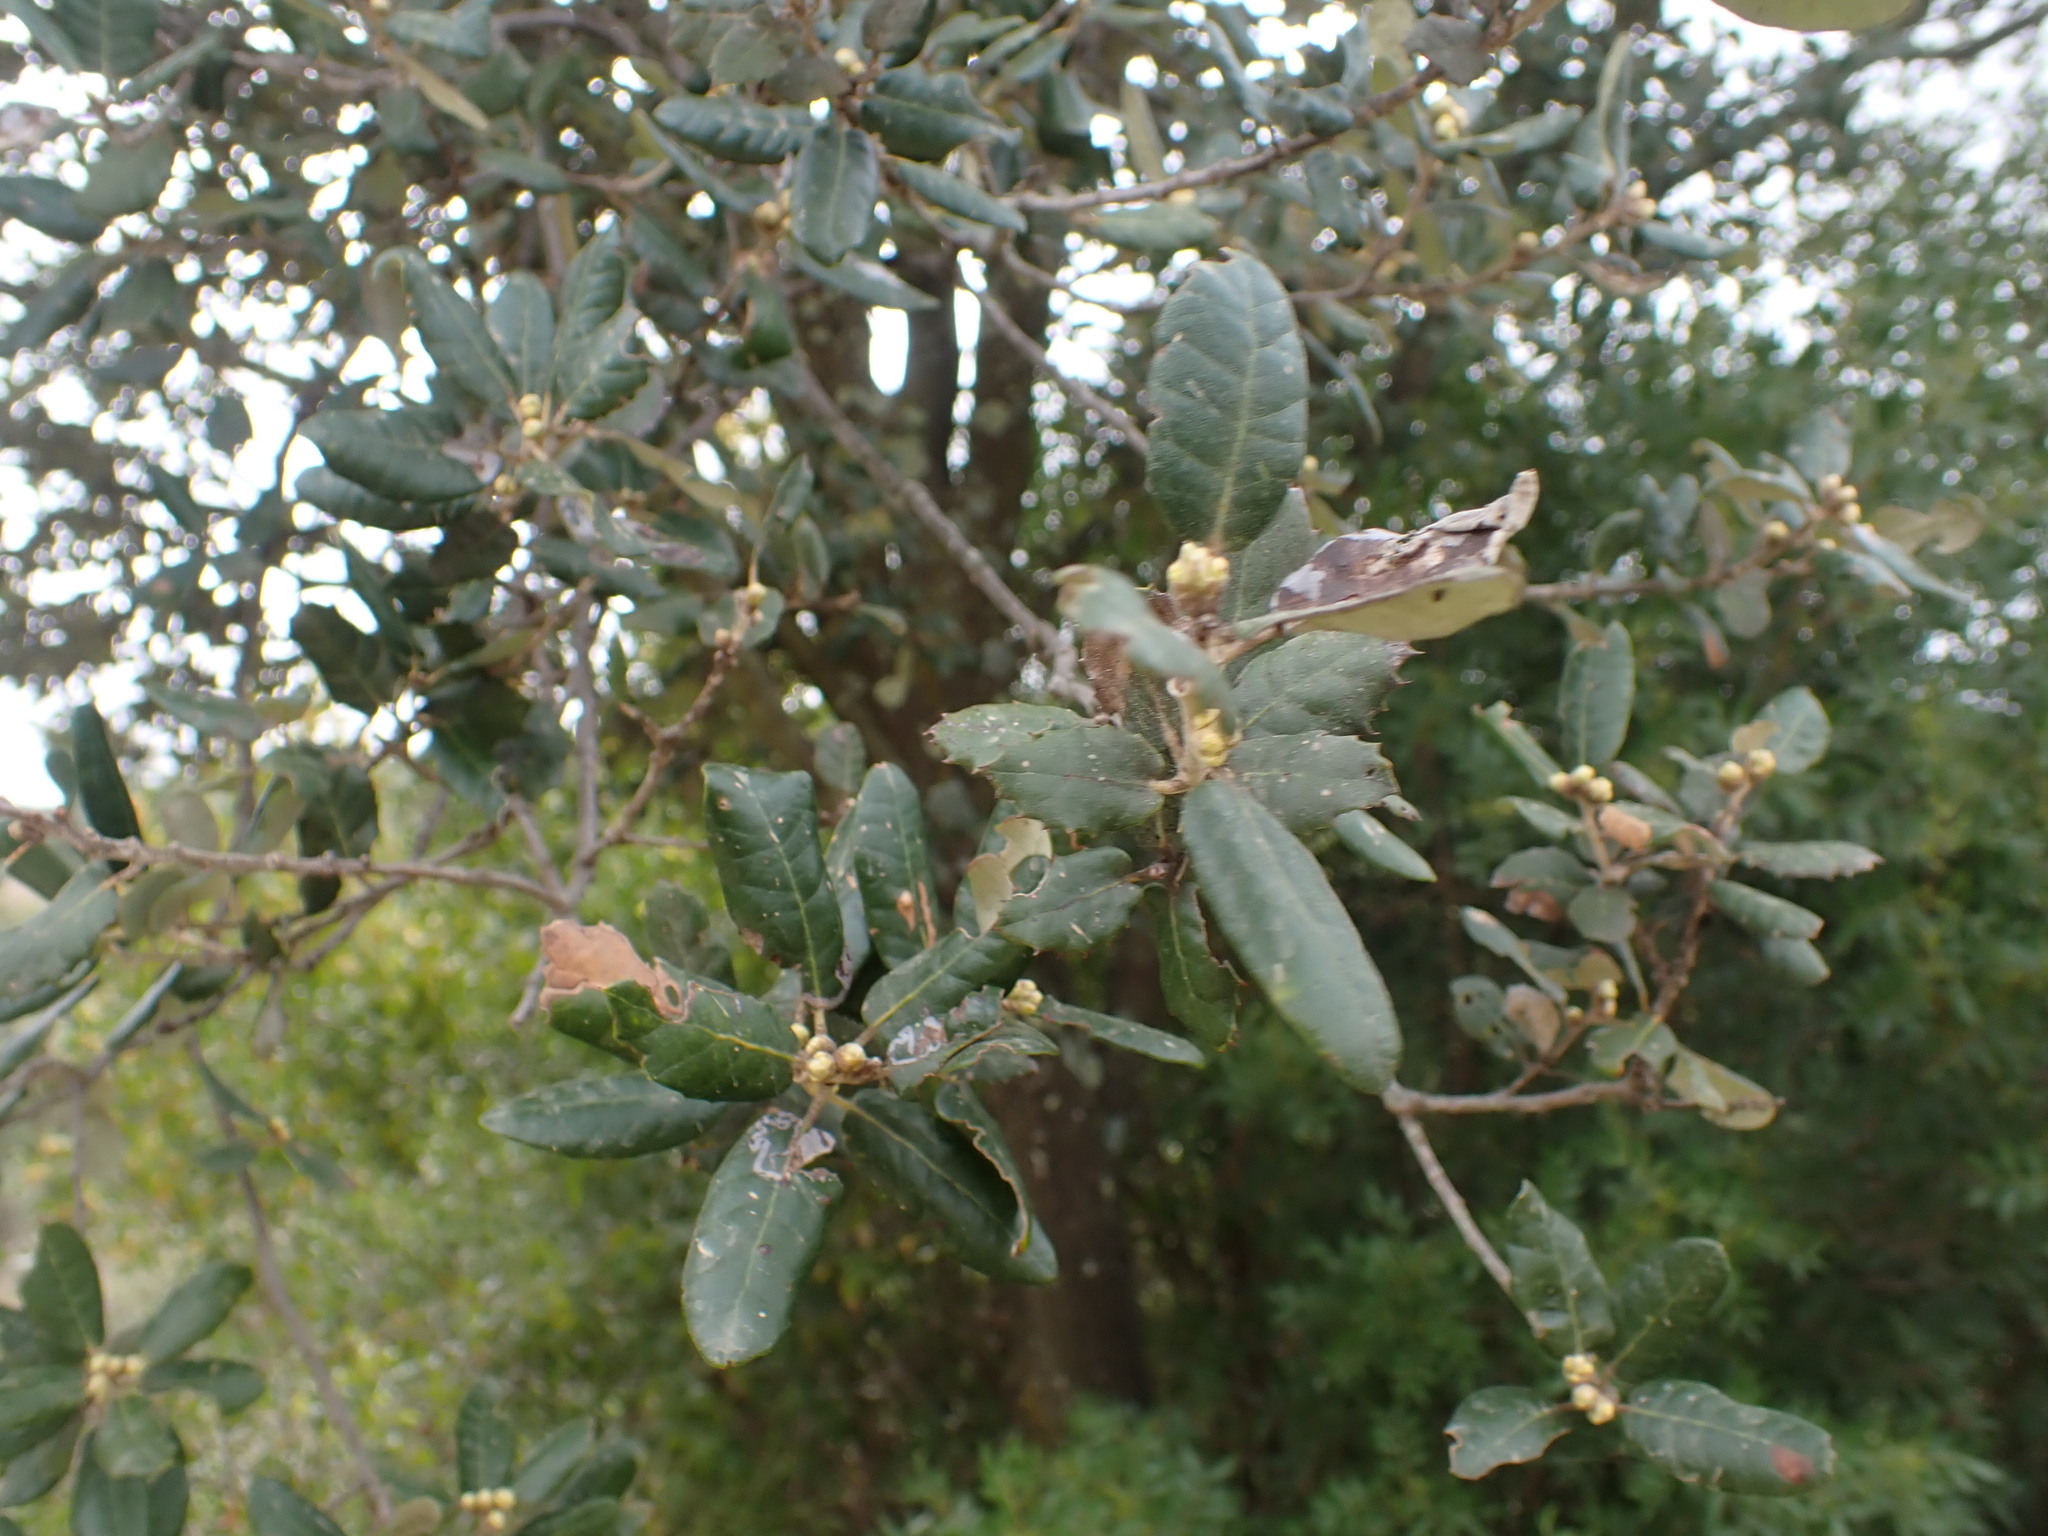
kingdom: Plantae
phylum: Tracheophyta
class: Magnoliopsida
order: Fagales
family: Fagaceae
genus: Quercus
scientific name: Quercus ilex
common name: Evergreen oak
